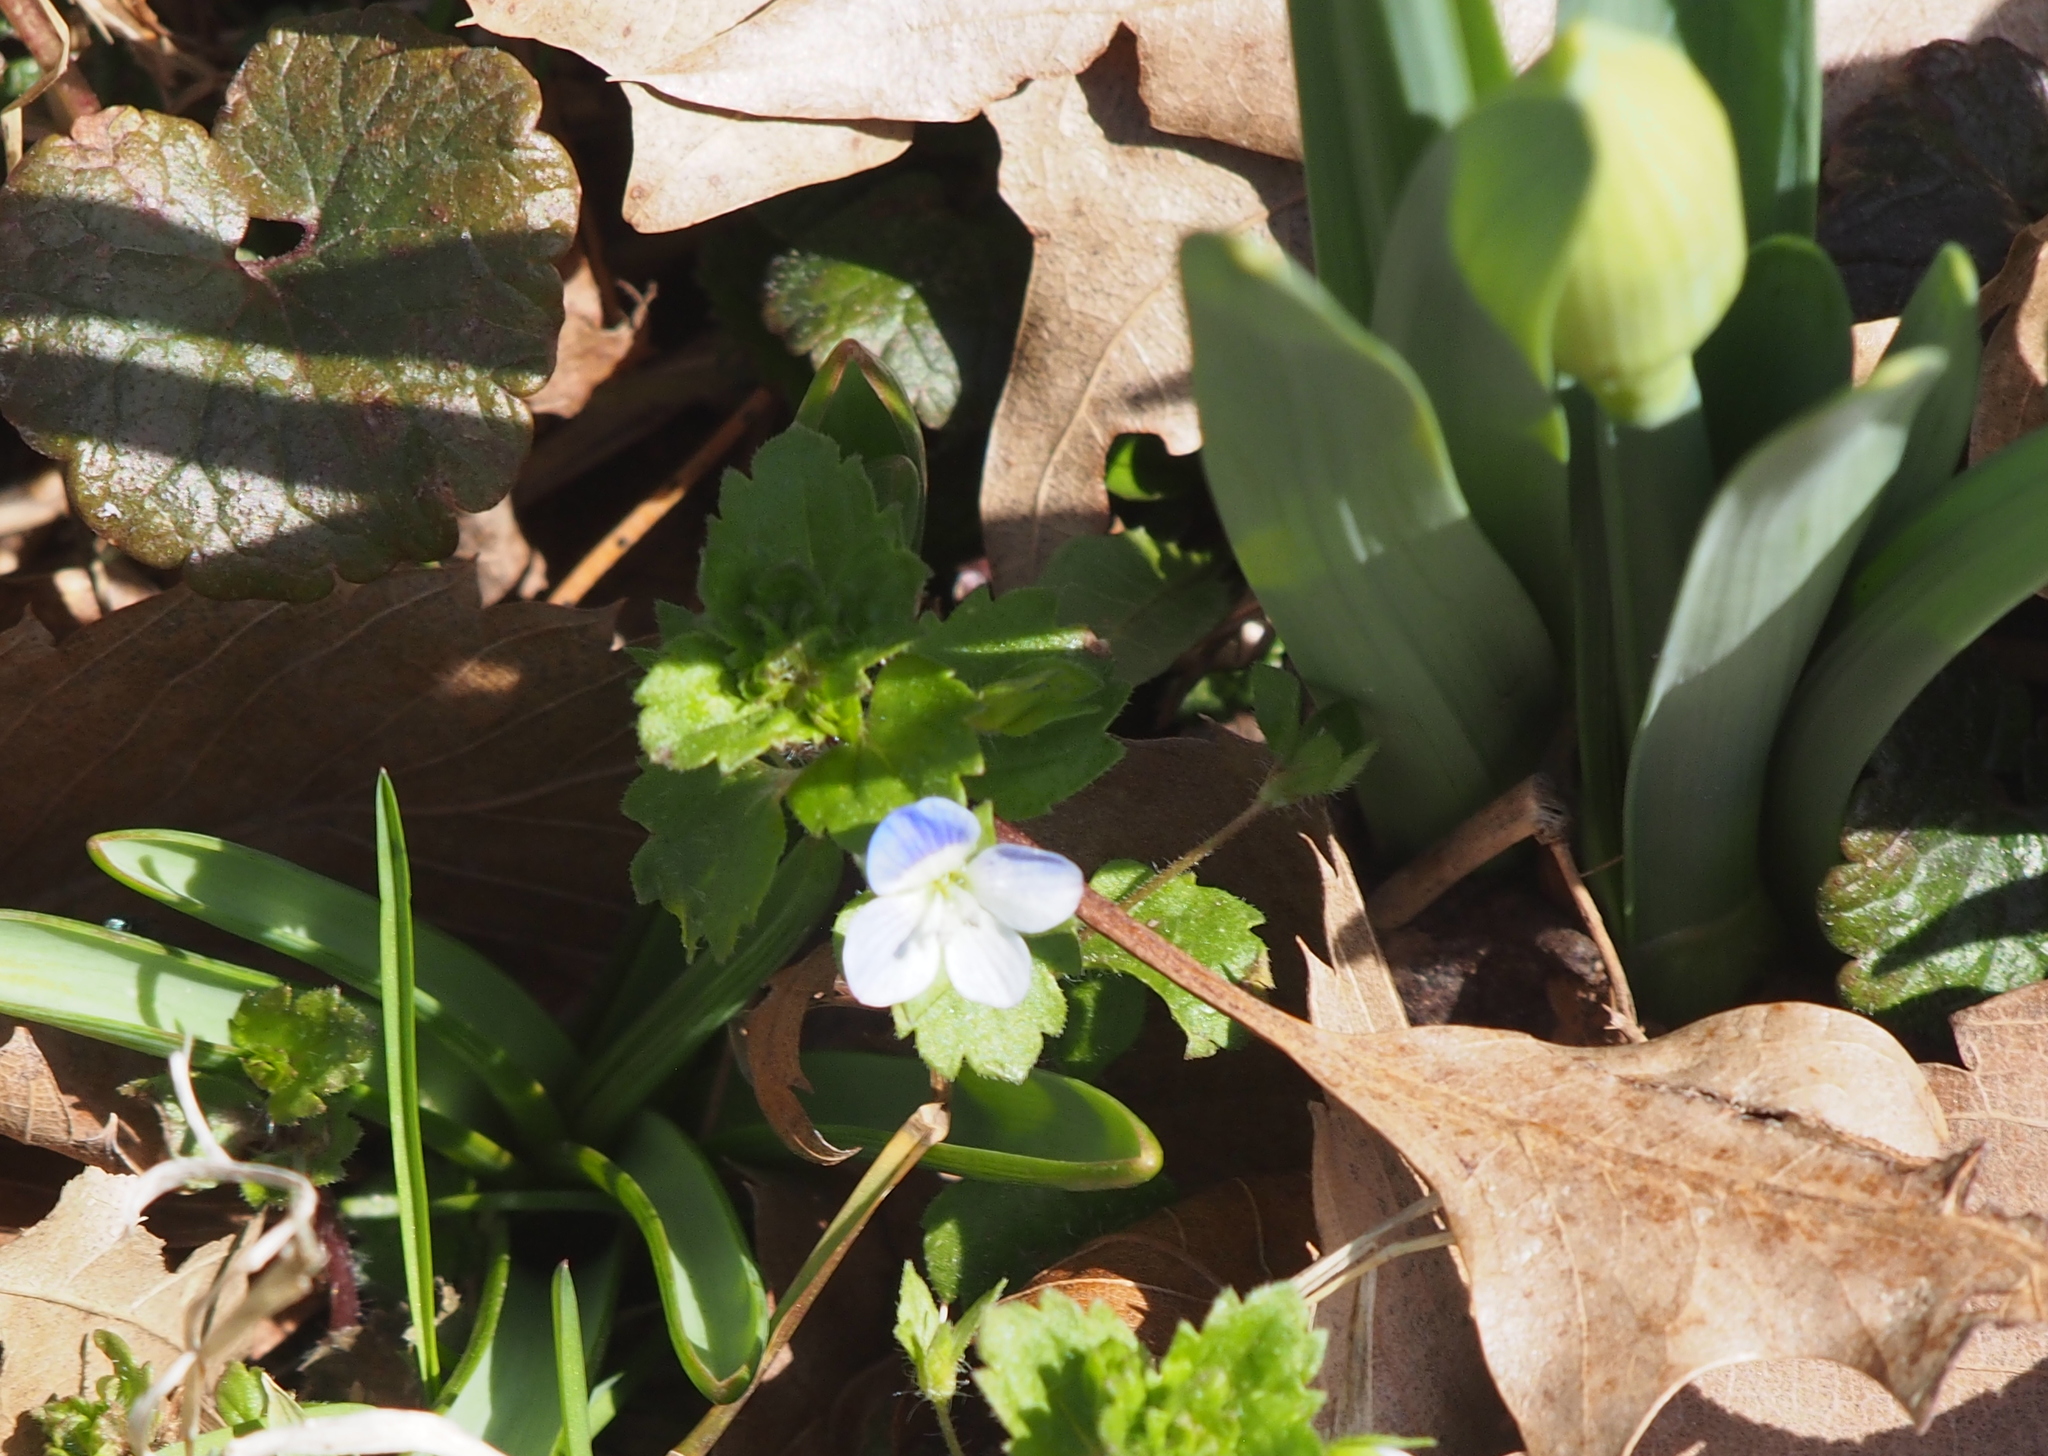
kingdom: Plantae
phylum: Tracheophyta
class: Magnoliopsida
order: Lamiales
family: Plantaginaceae
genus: Veronica
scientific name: Veronica persica
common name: Common field-speedwell
